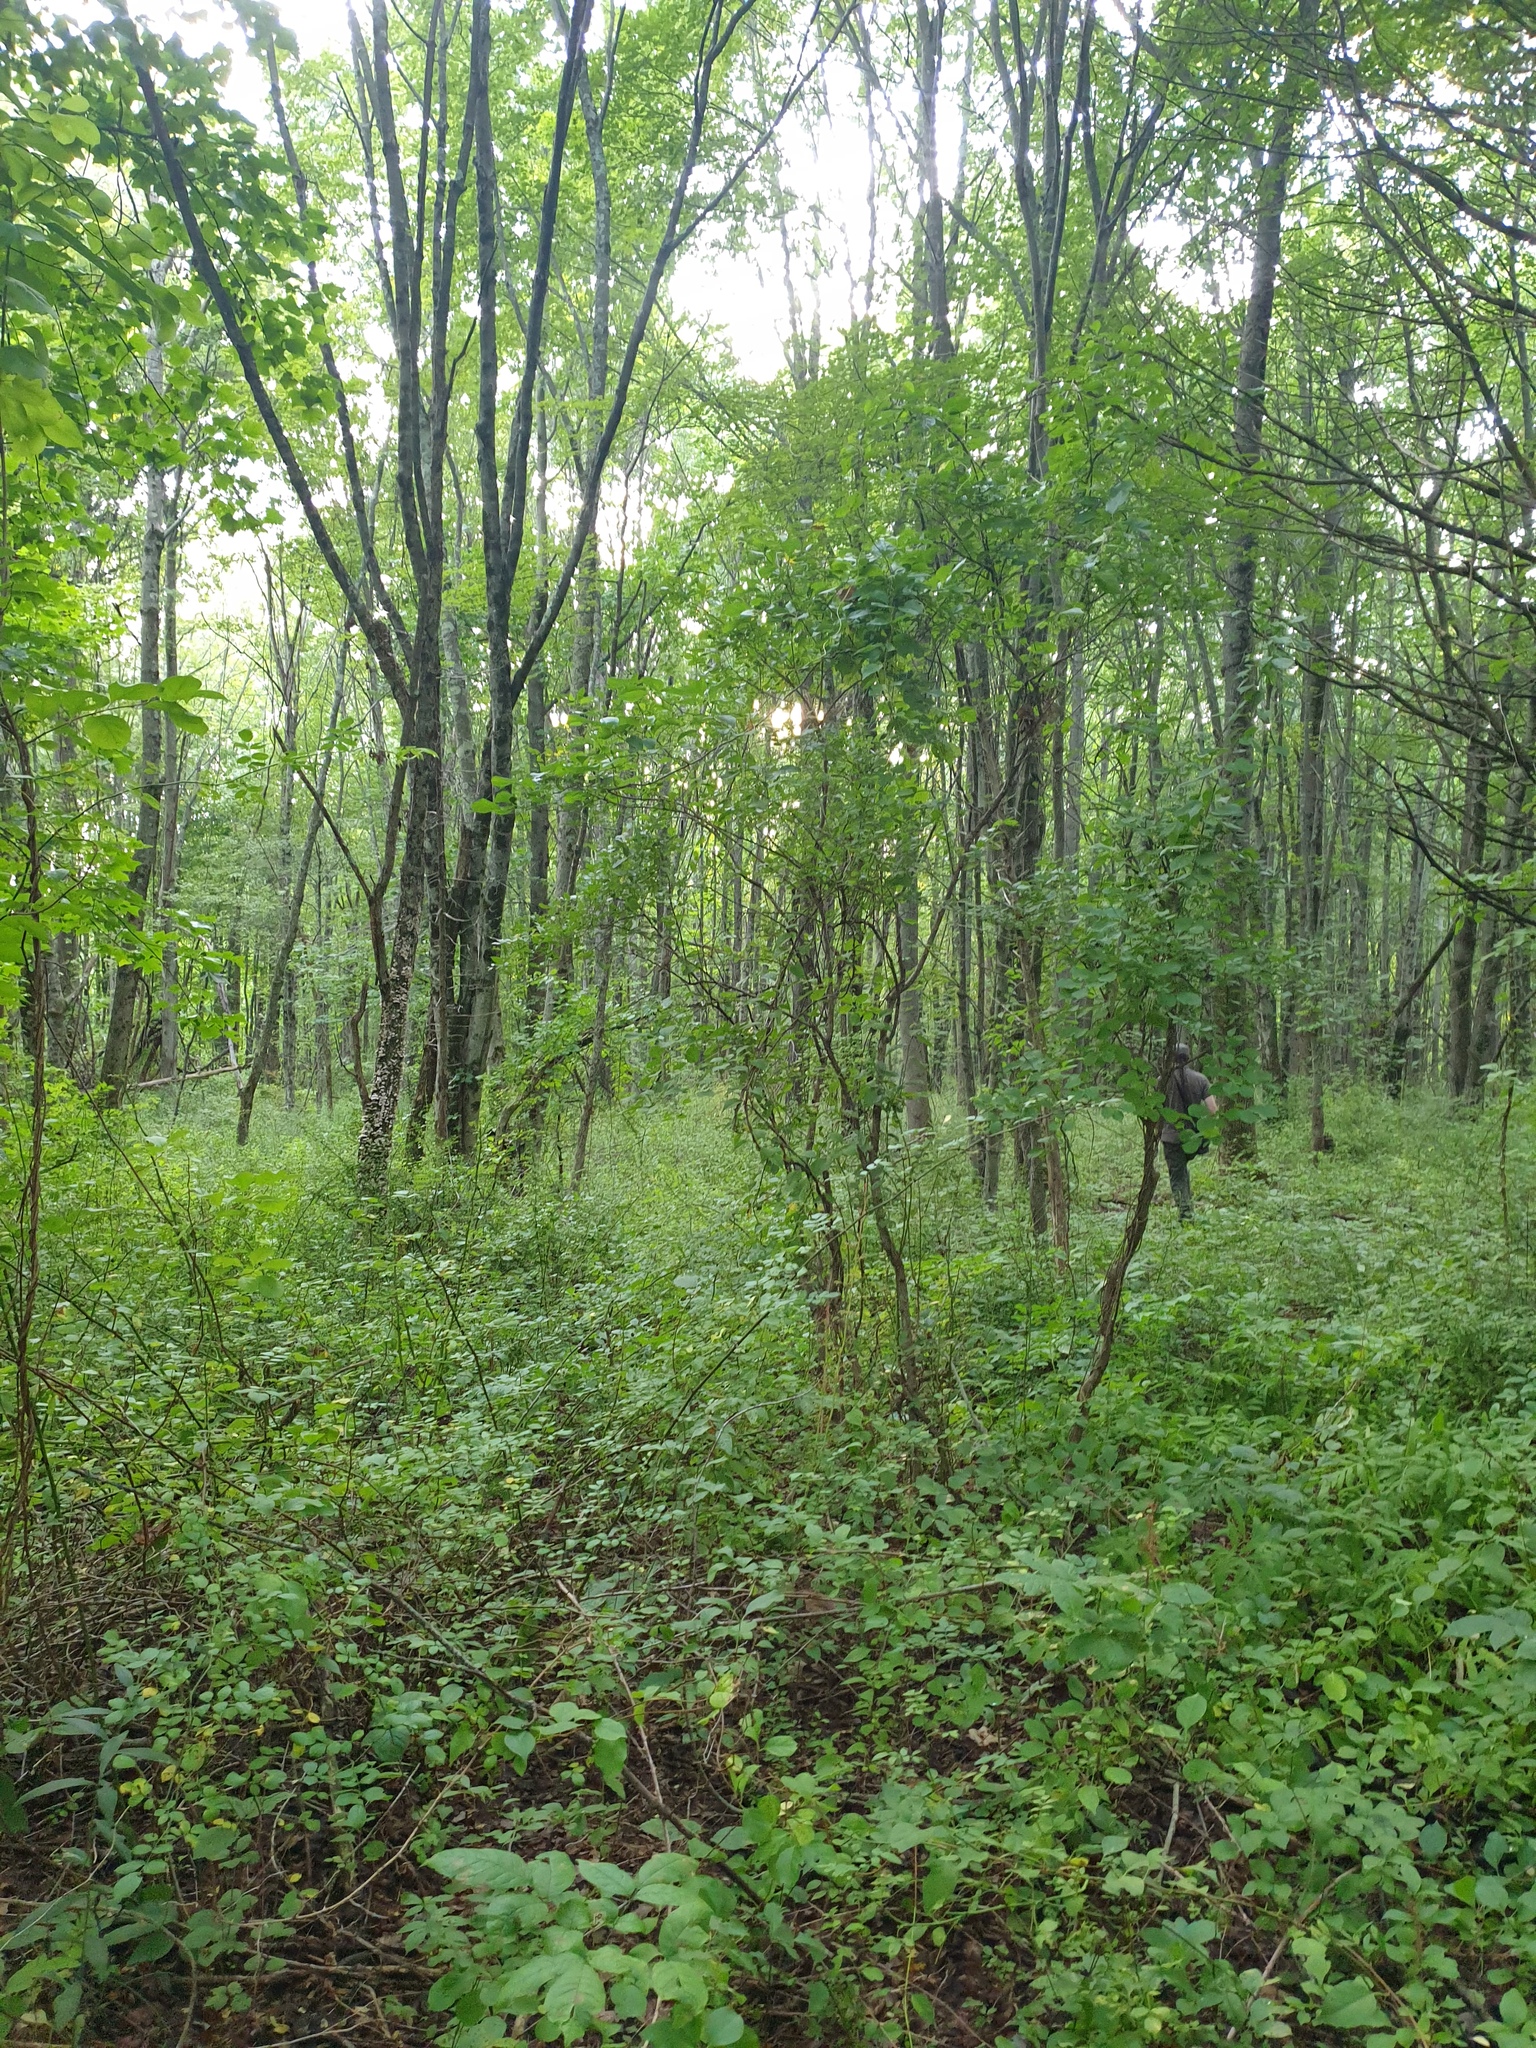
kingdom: Plantae
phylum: Tracheophyta
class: Magnoliopsida
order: Ranunculales
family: Berberidaceae
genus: Berberis
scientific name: Berberis thunbergii
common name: Japanese barberry
